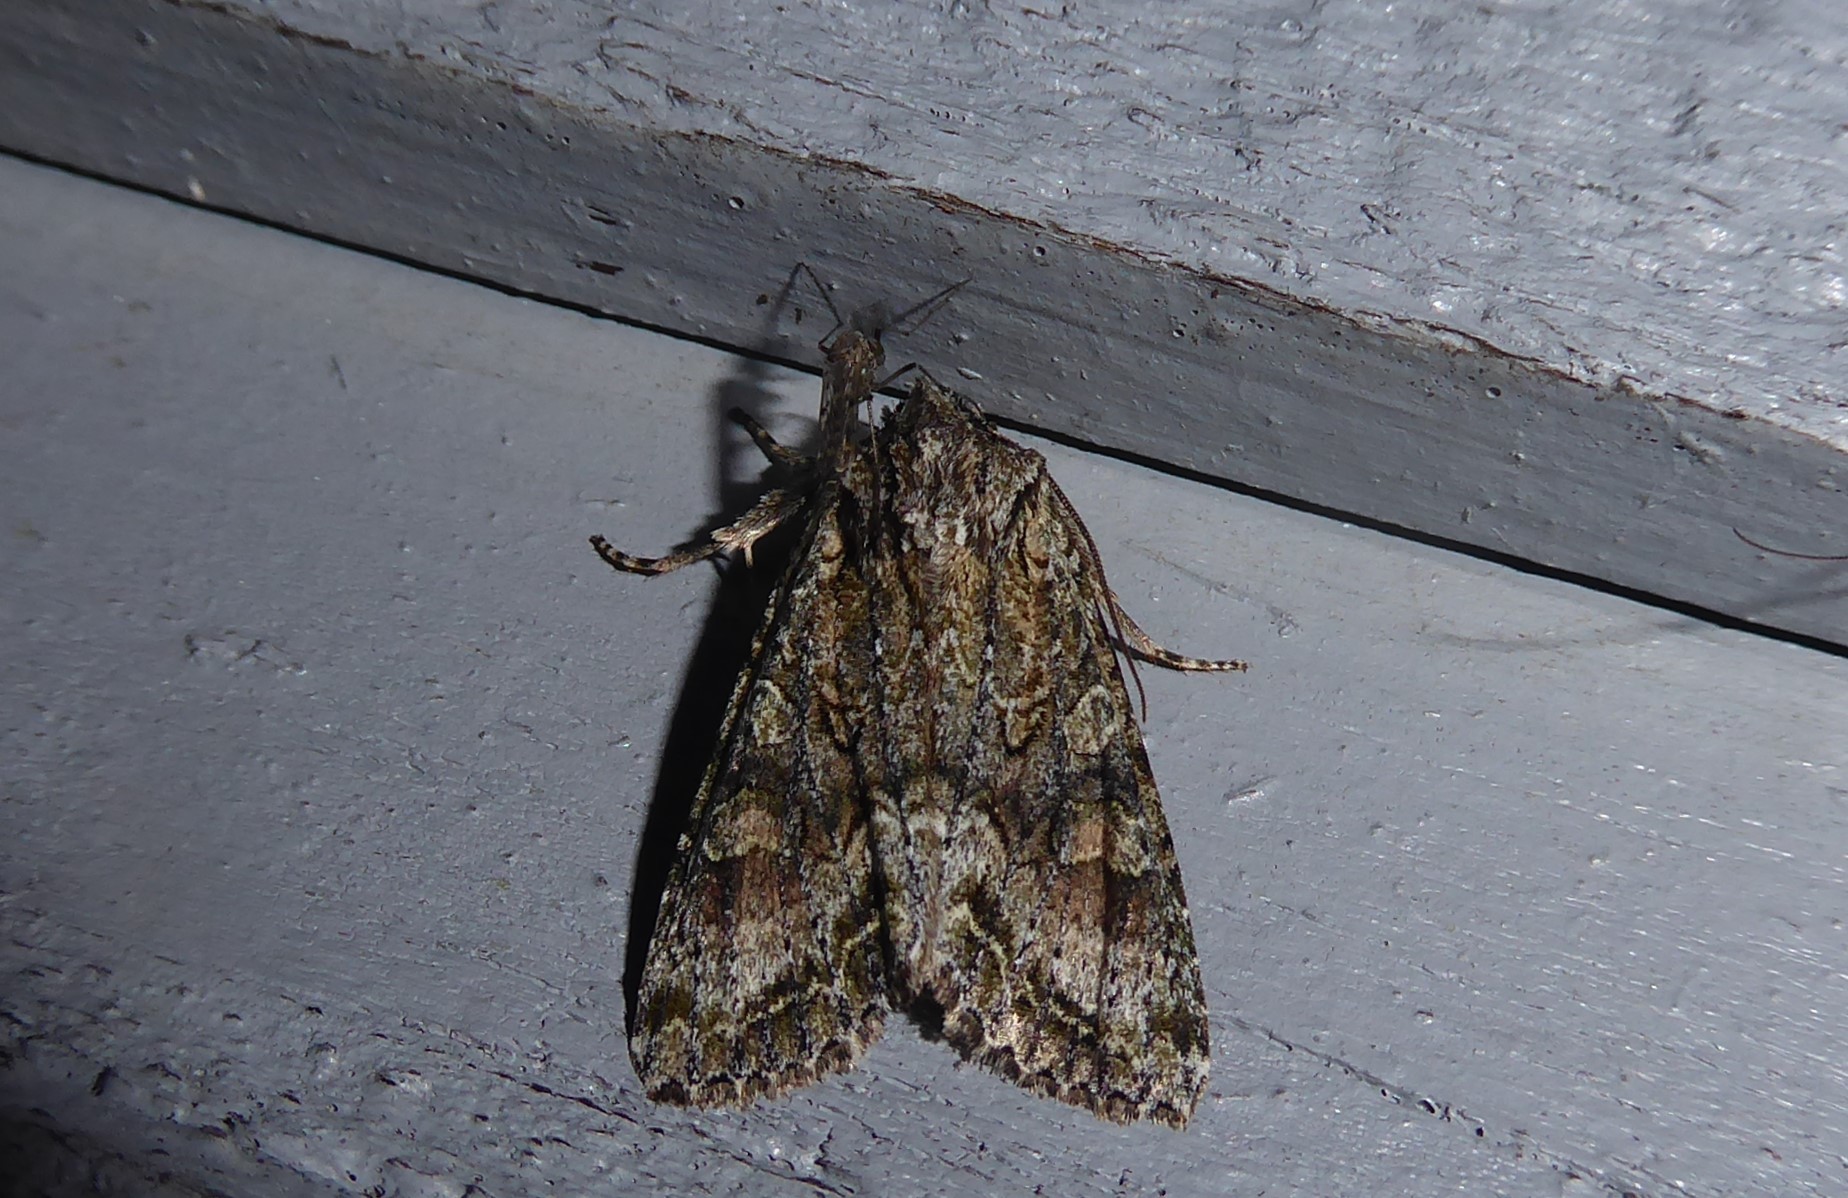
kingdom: Animalia
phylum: Arthropoda
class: Insecta
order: Lepidoptera
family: Noctuidae
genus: Ichneutica
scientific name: Ichneutica mutans
